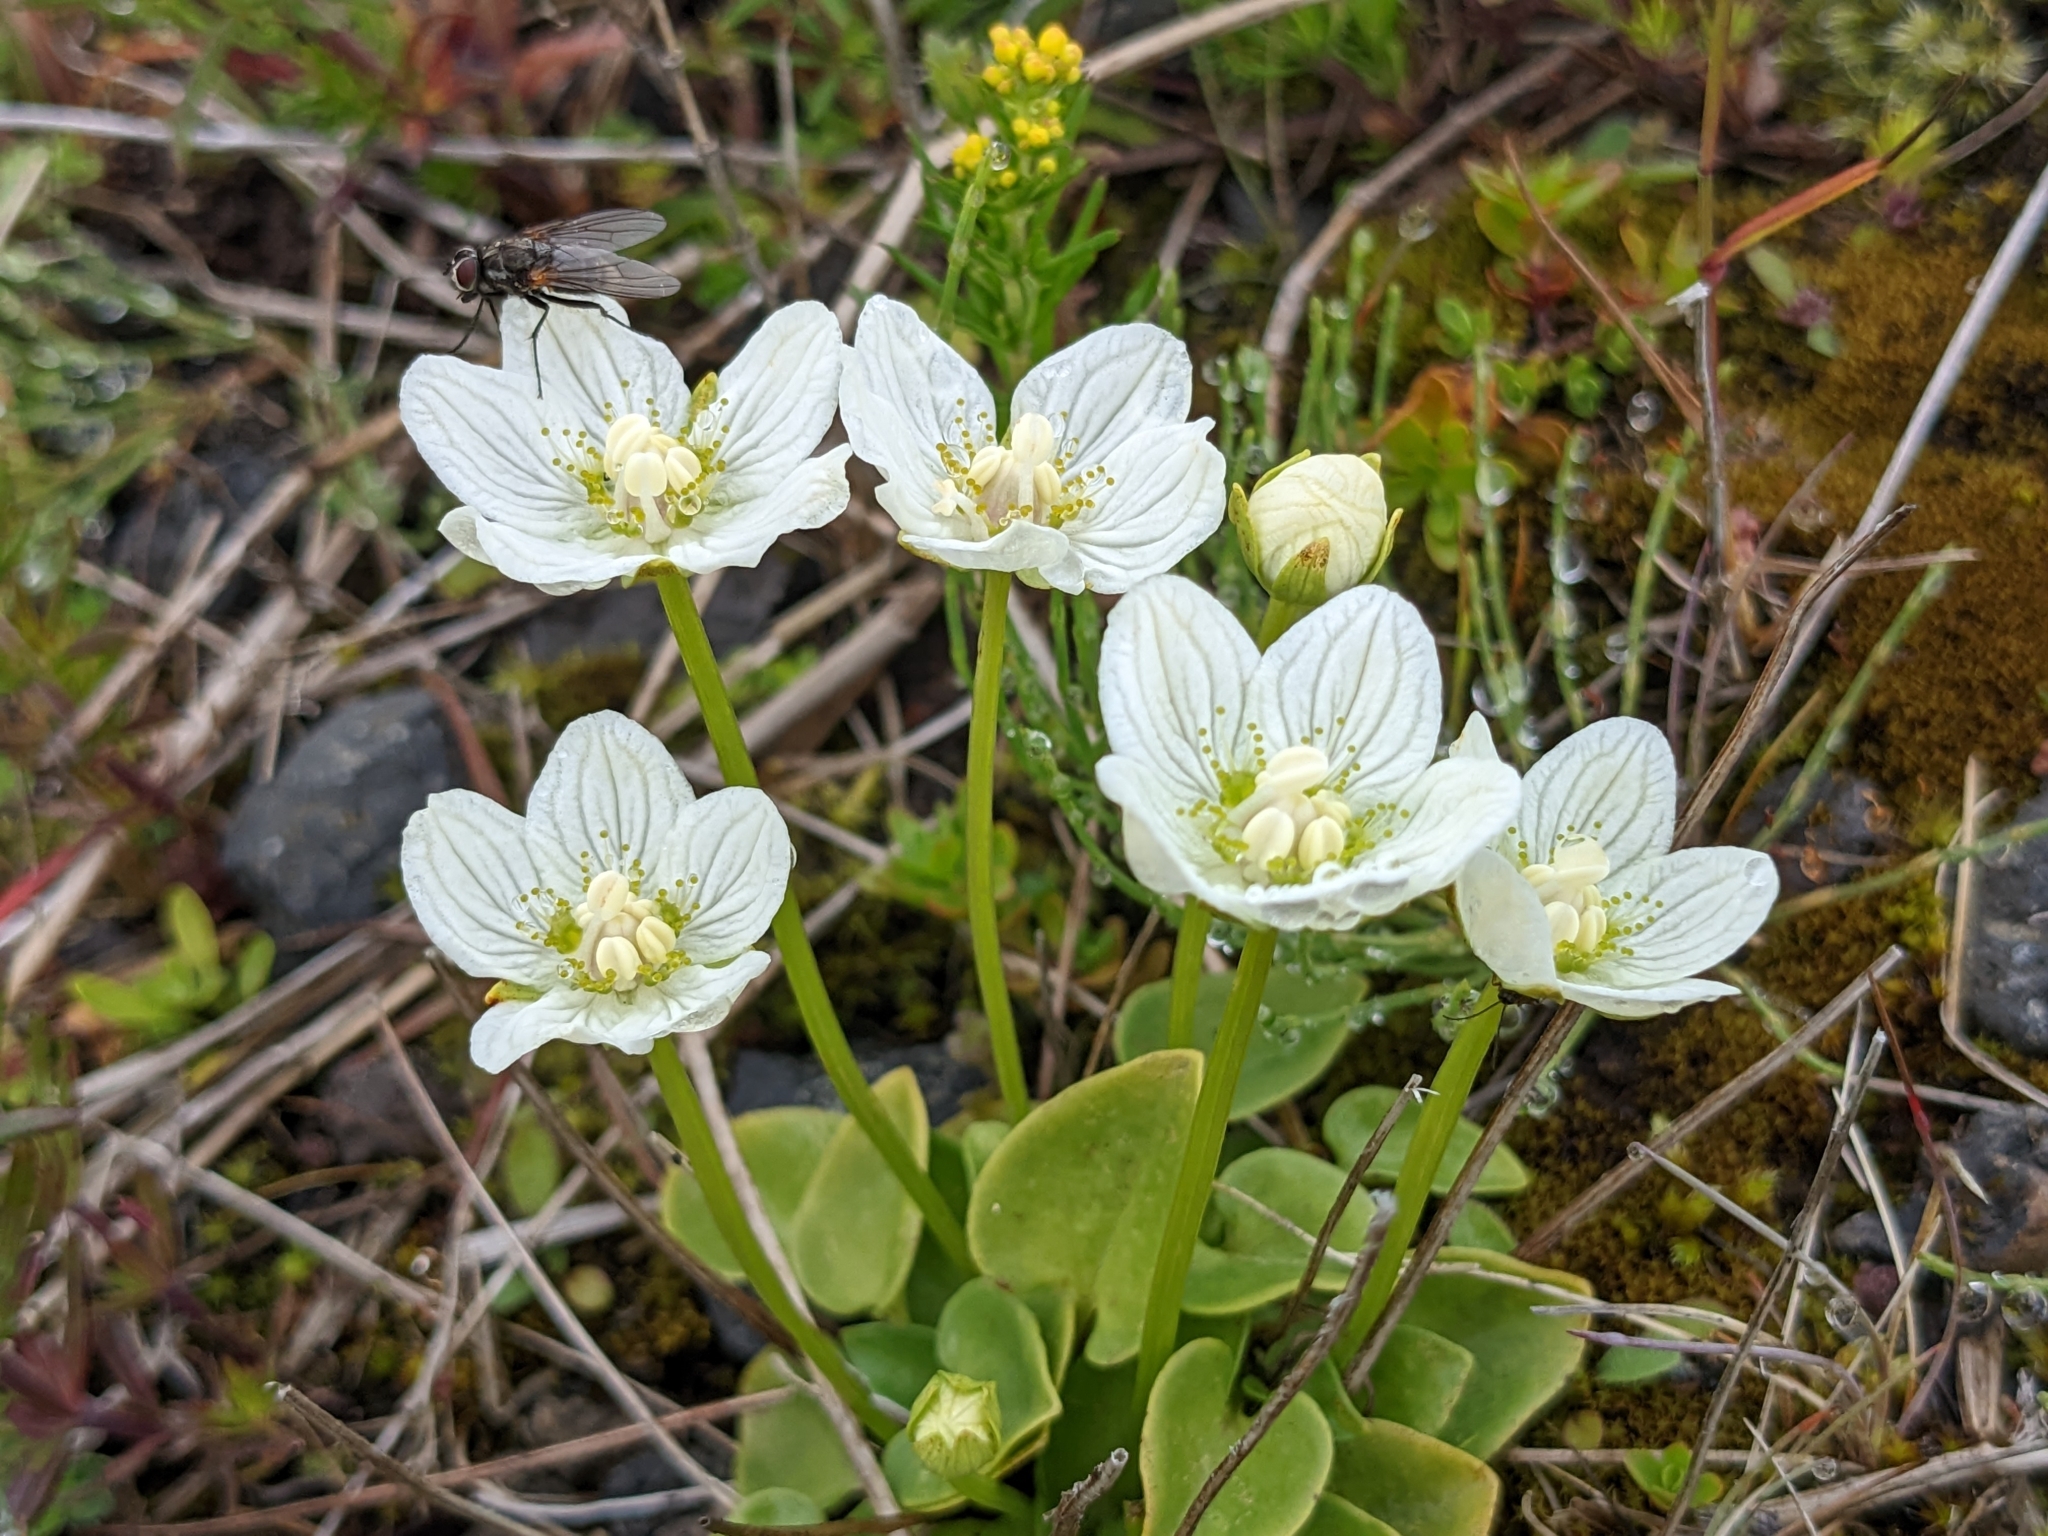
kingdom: Plantae
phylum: Tracheophyta
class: Magnoliopsida
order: Celastrales
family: Parnassiaceae
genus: Parnassia
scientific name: Parnassia palustris
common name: Grass-of-parnassus
